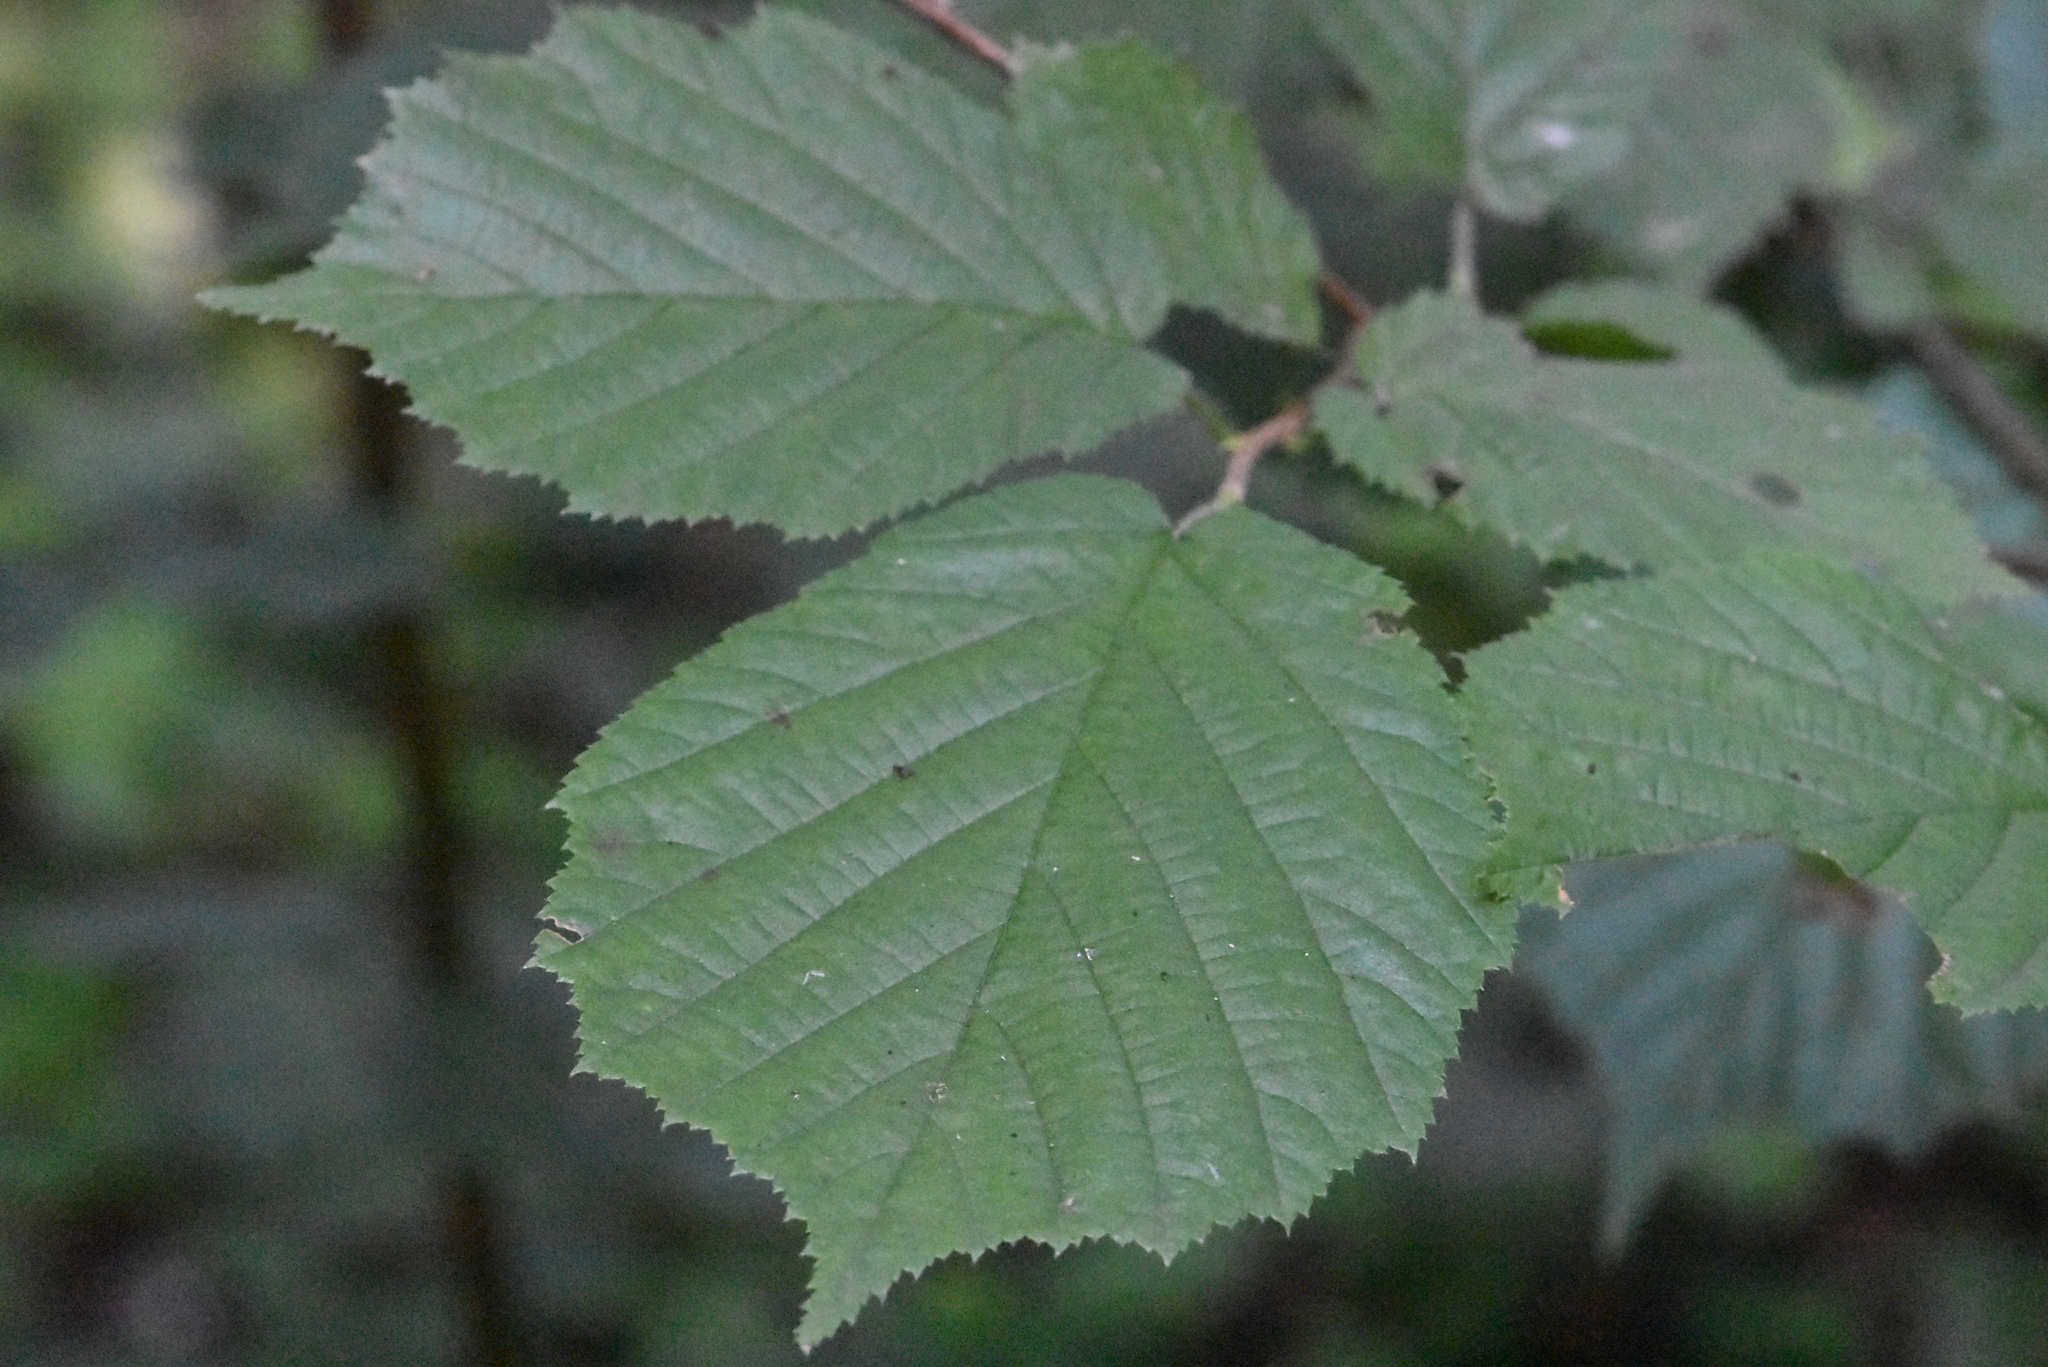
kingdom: Plantae
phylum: Tracheophyta
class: Magnoliopsida
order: Fagales
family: Betulaceae
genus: Corylus
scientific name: Corylus avellana
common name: European hazel
